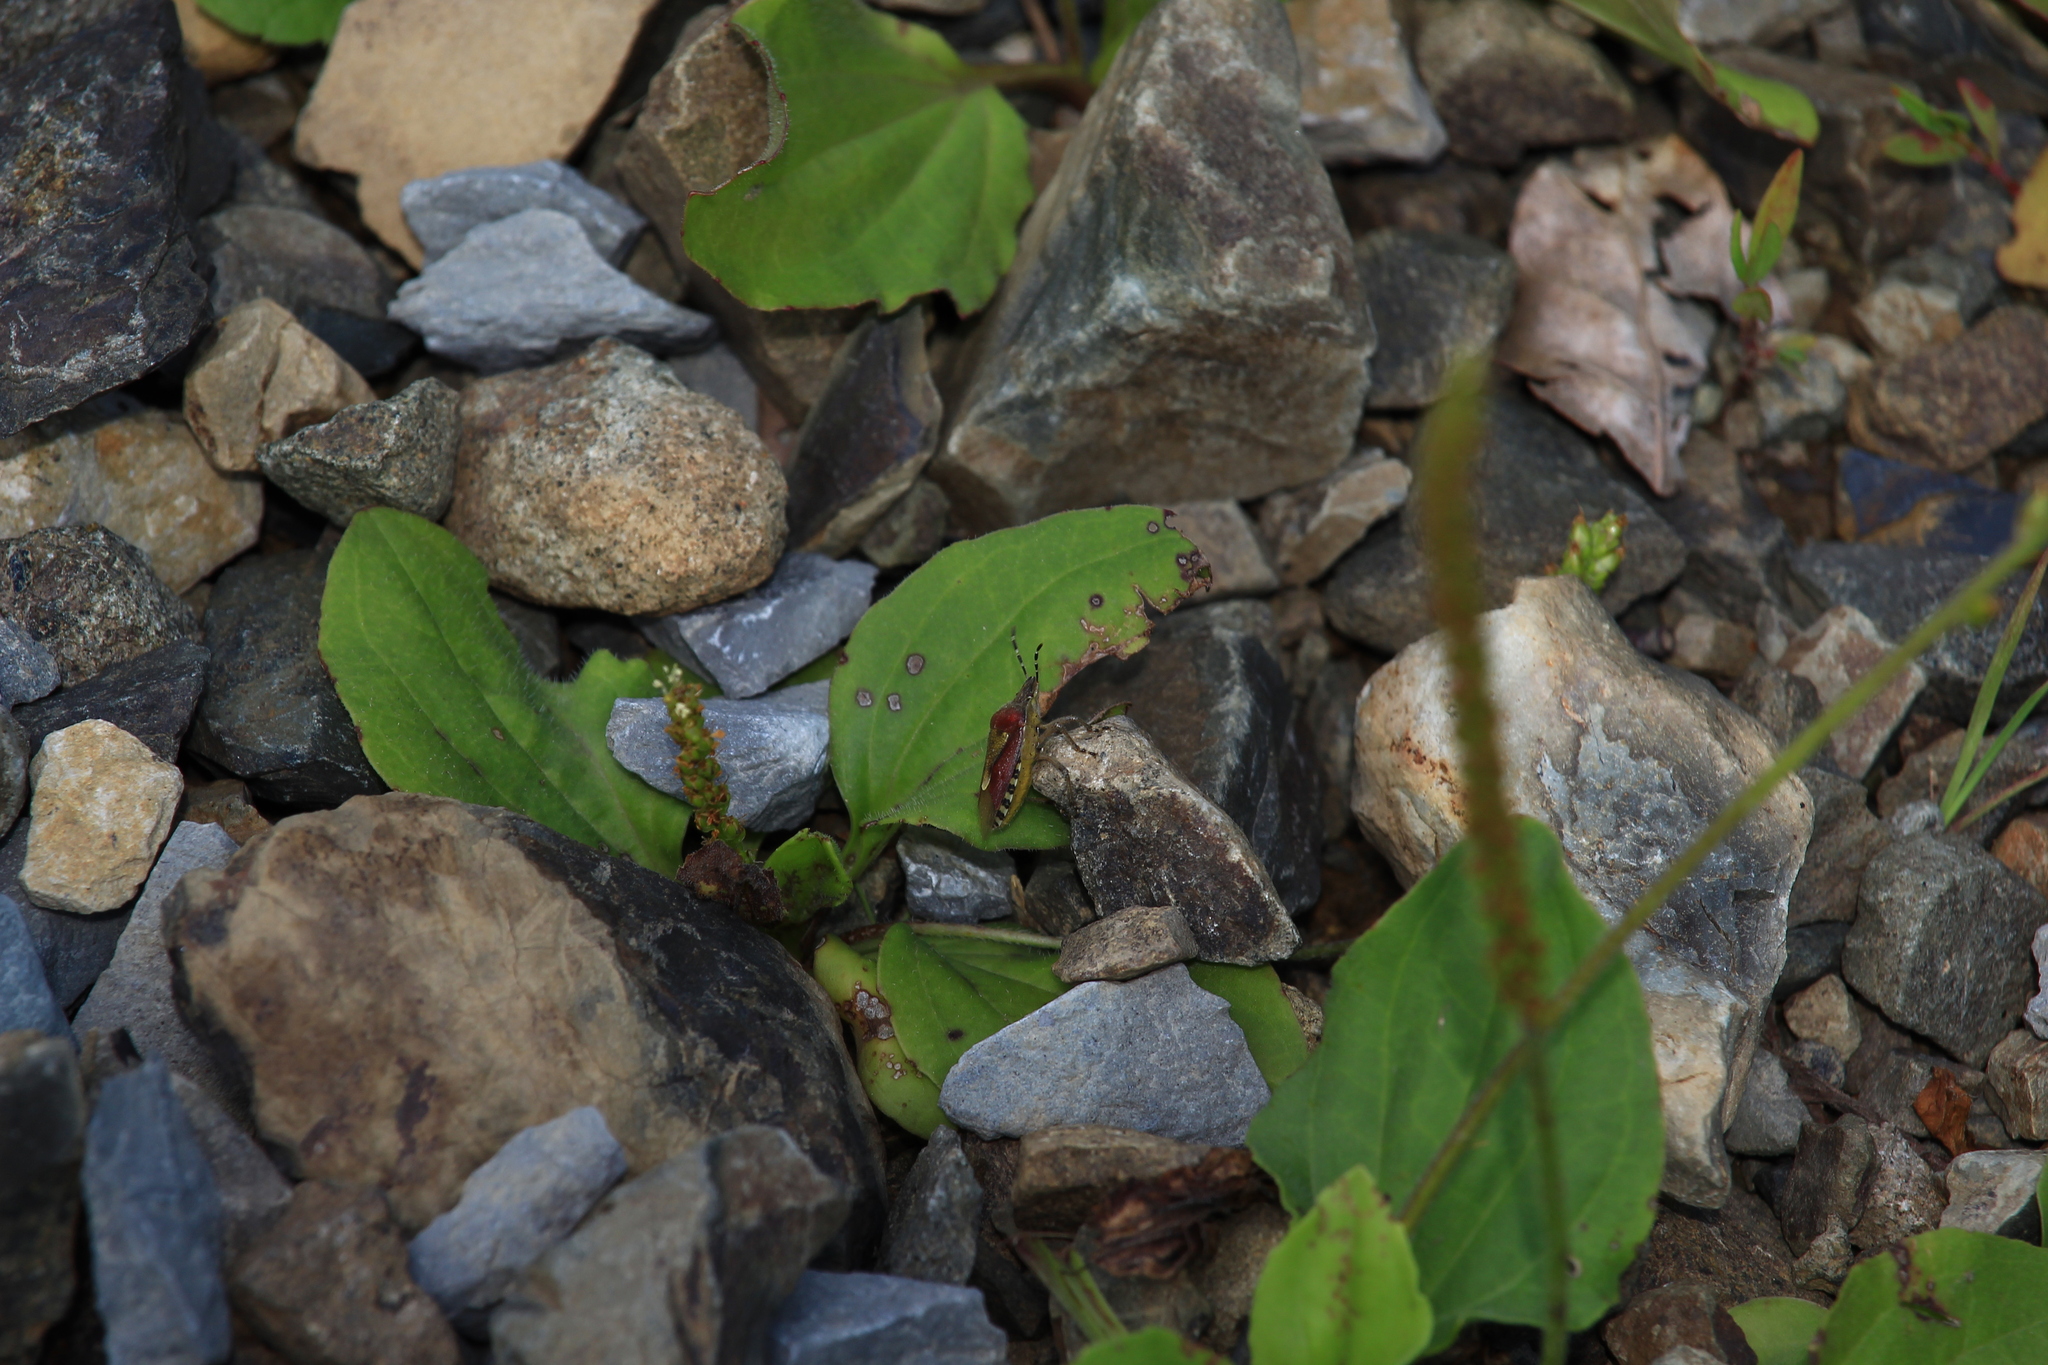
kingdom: Animalia
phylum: Arthropoda
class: Insecta
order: Hemiptera
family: Pentatomidae
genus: Dolycoris
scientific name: Dolycoris baccarum
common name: Sloe bug
